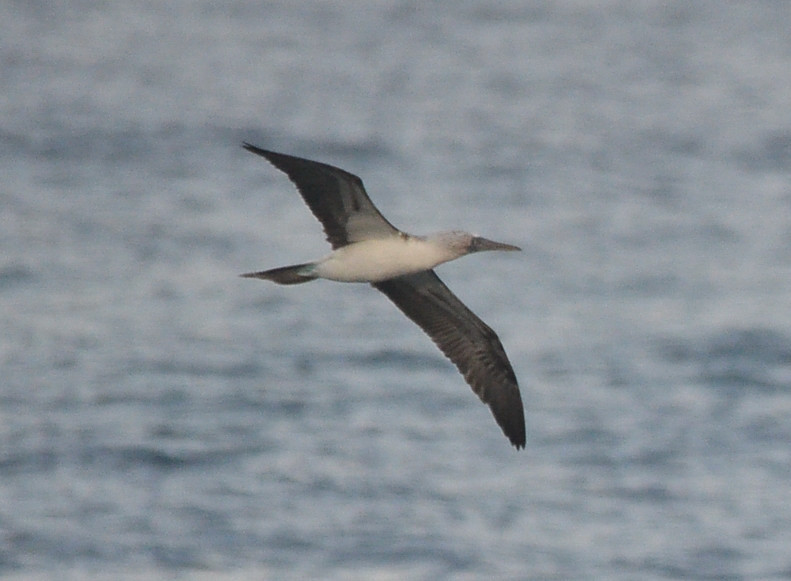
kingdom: Animalia
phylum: Chordata
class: Aves
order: Suliformes
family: Sulidae
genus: Sula
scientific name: Sula nebouxii
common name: Blue-footed booby
